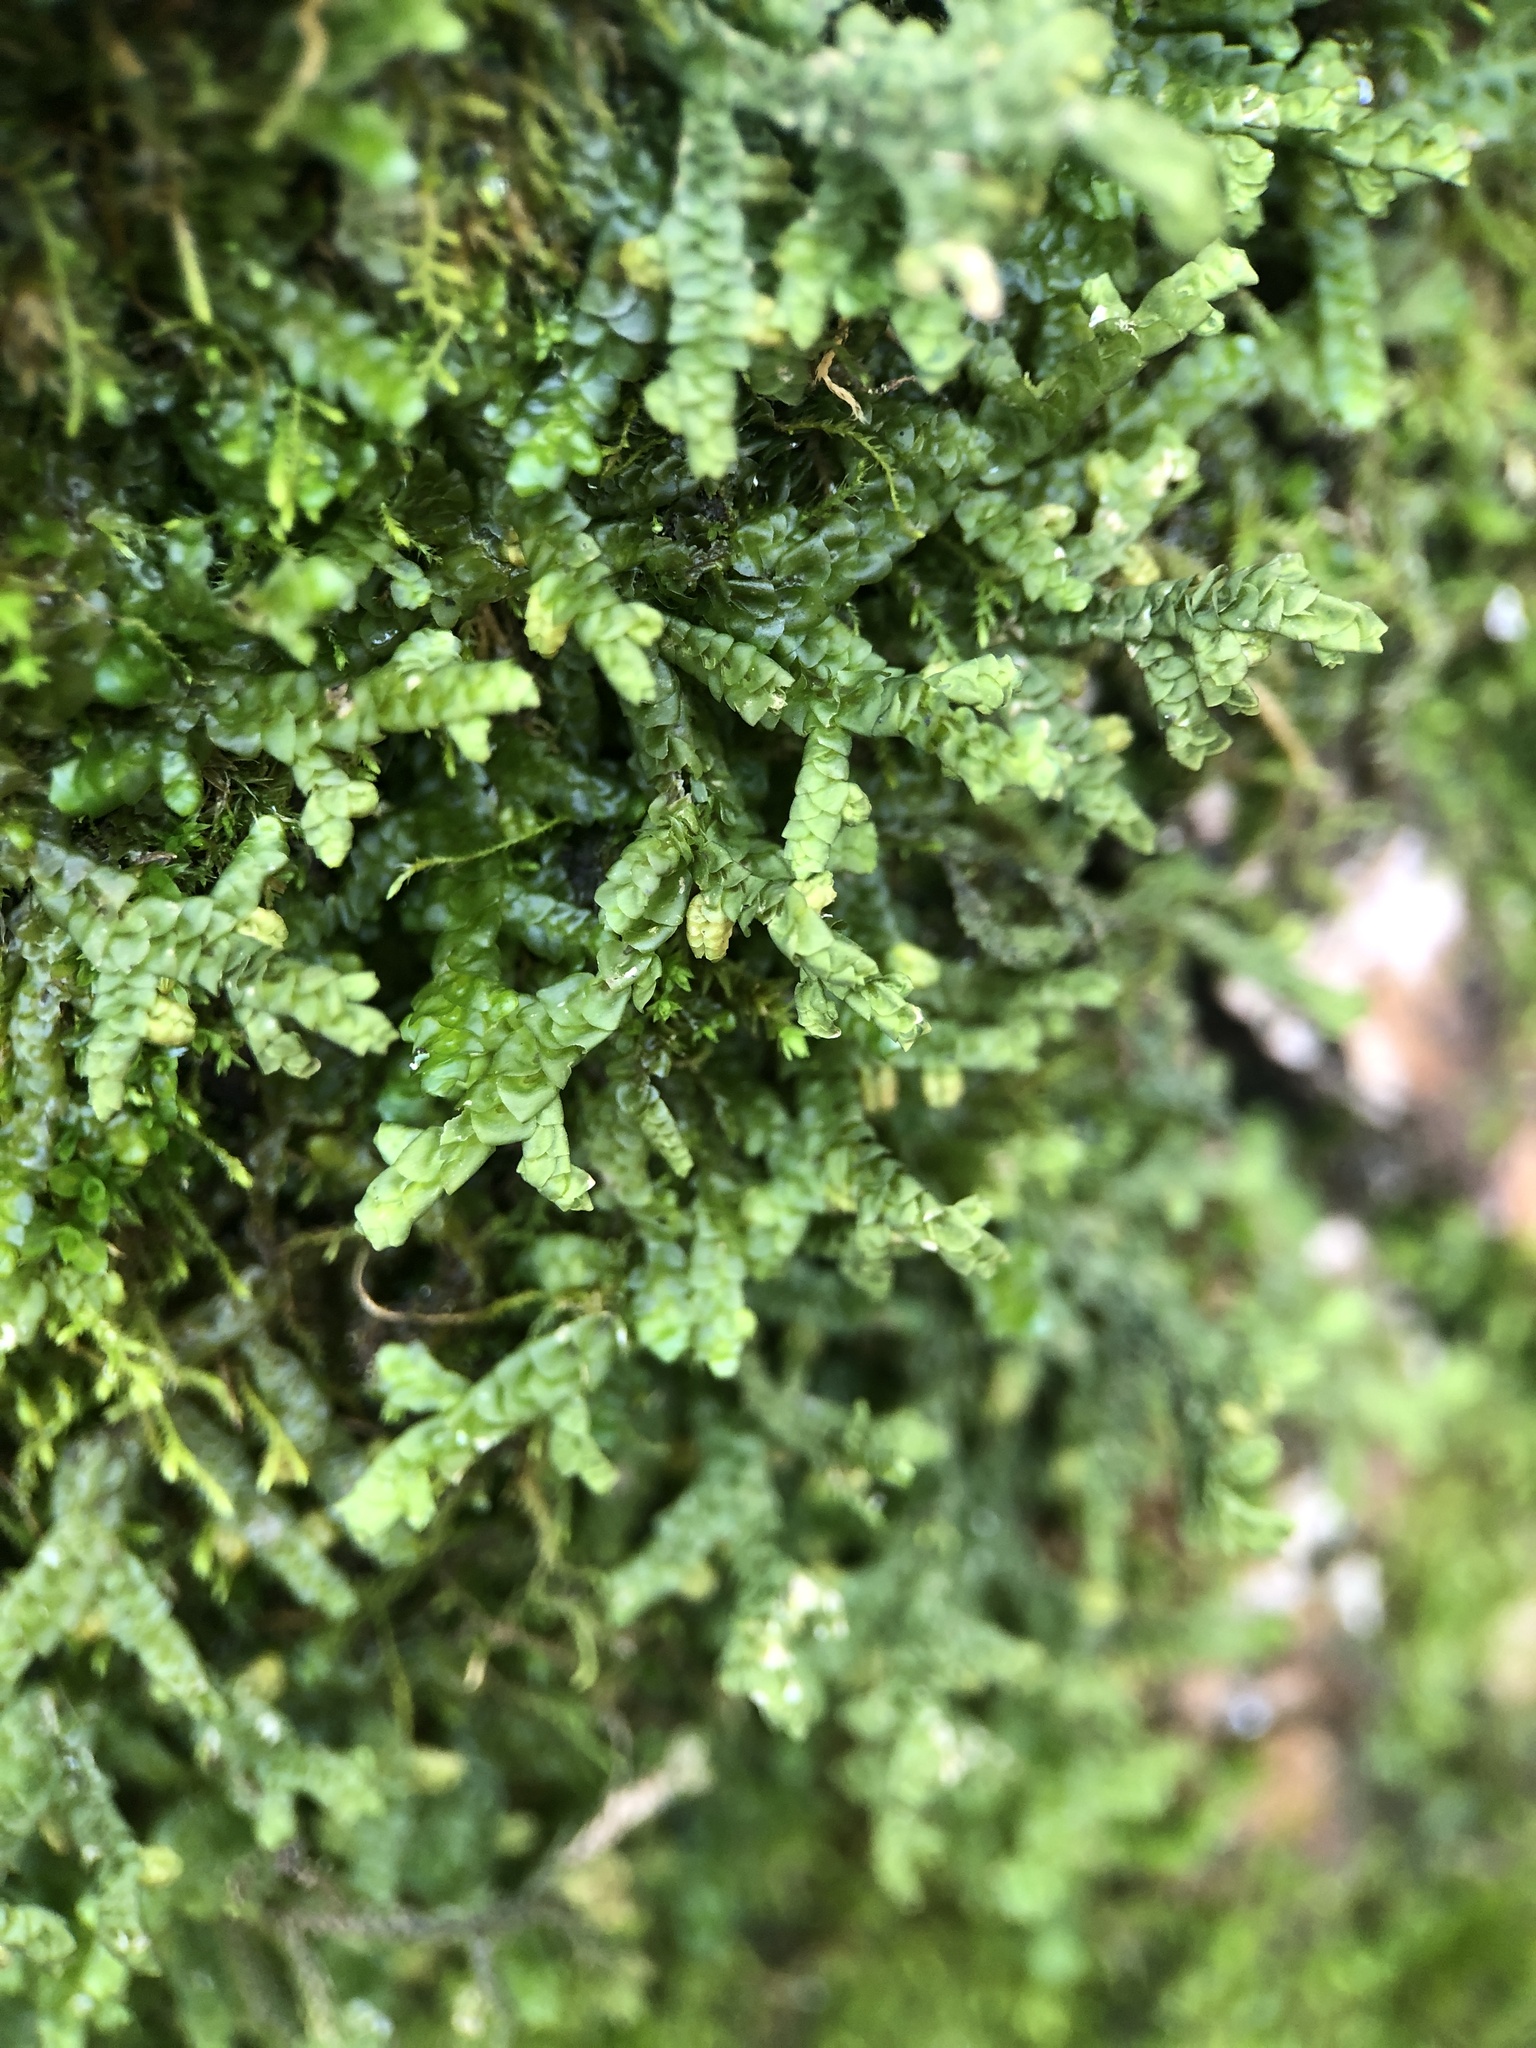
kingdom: Plantae
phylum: Marchantiophyta
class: Jungermanniopsida
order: Porellales
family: Porellaceae
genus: Porella
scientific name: Porella platyphylla
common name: Wall scalewort
